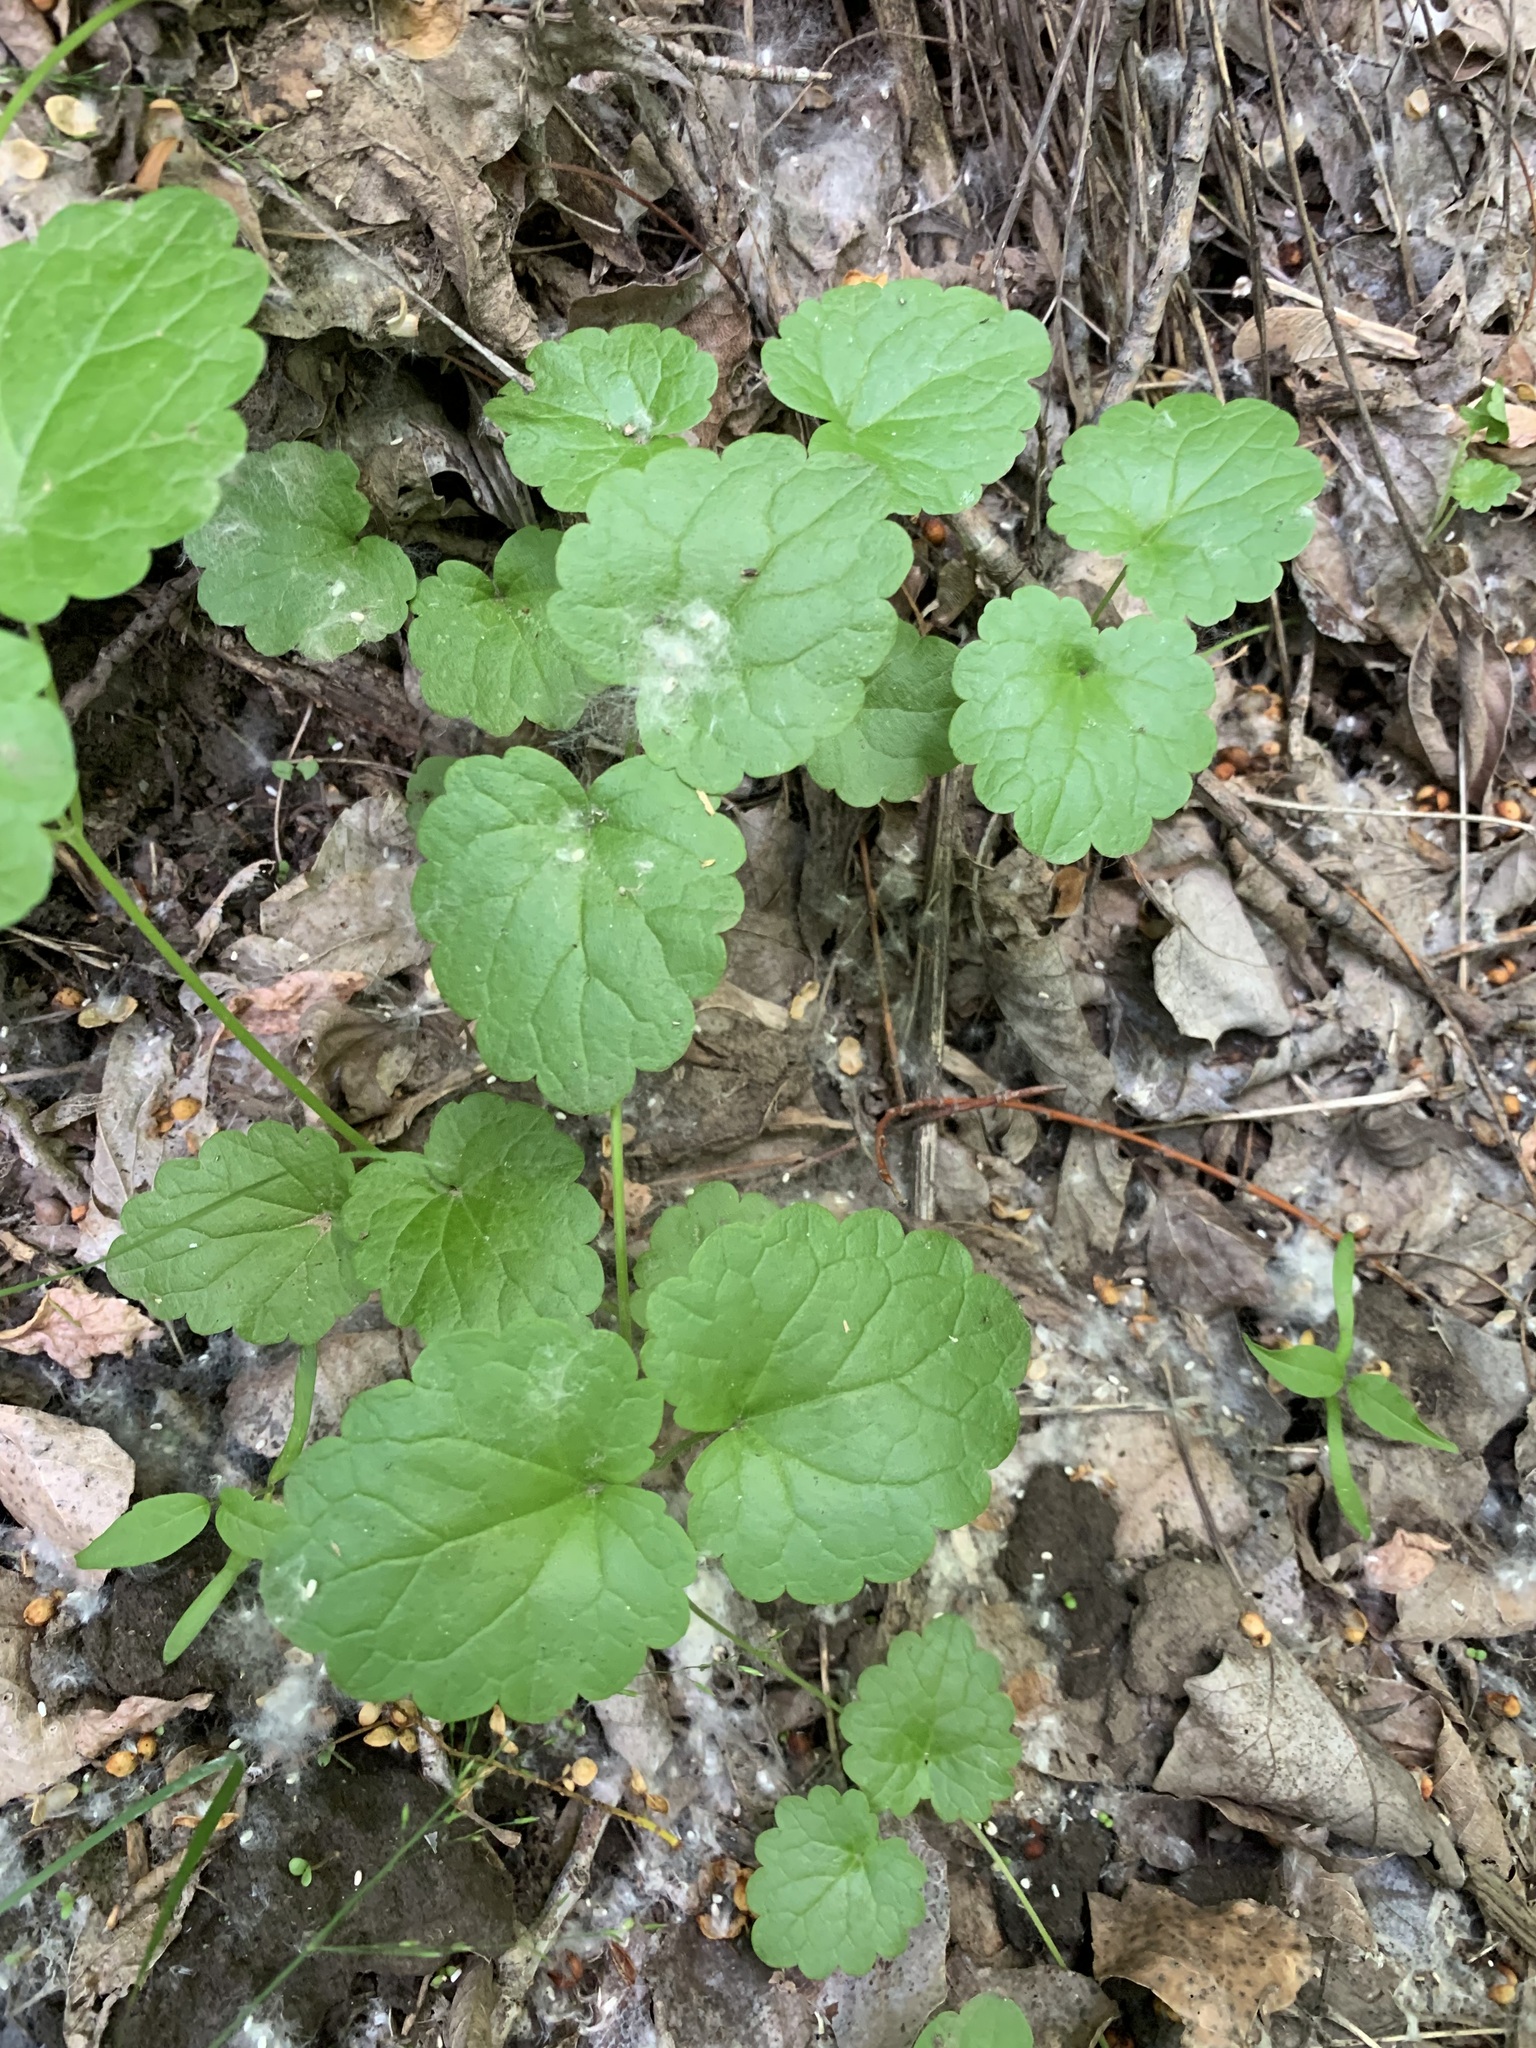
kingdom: Plantae
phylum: Tracheophyta
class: Magnoliopsida
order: Lamiales
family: Lamiaceae
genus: Glechoma
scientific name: Glechoma hederacea
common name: Ground ivy
